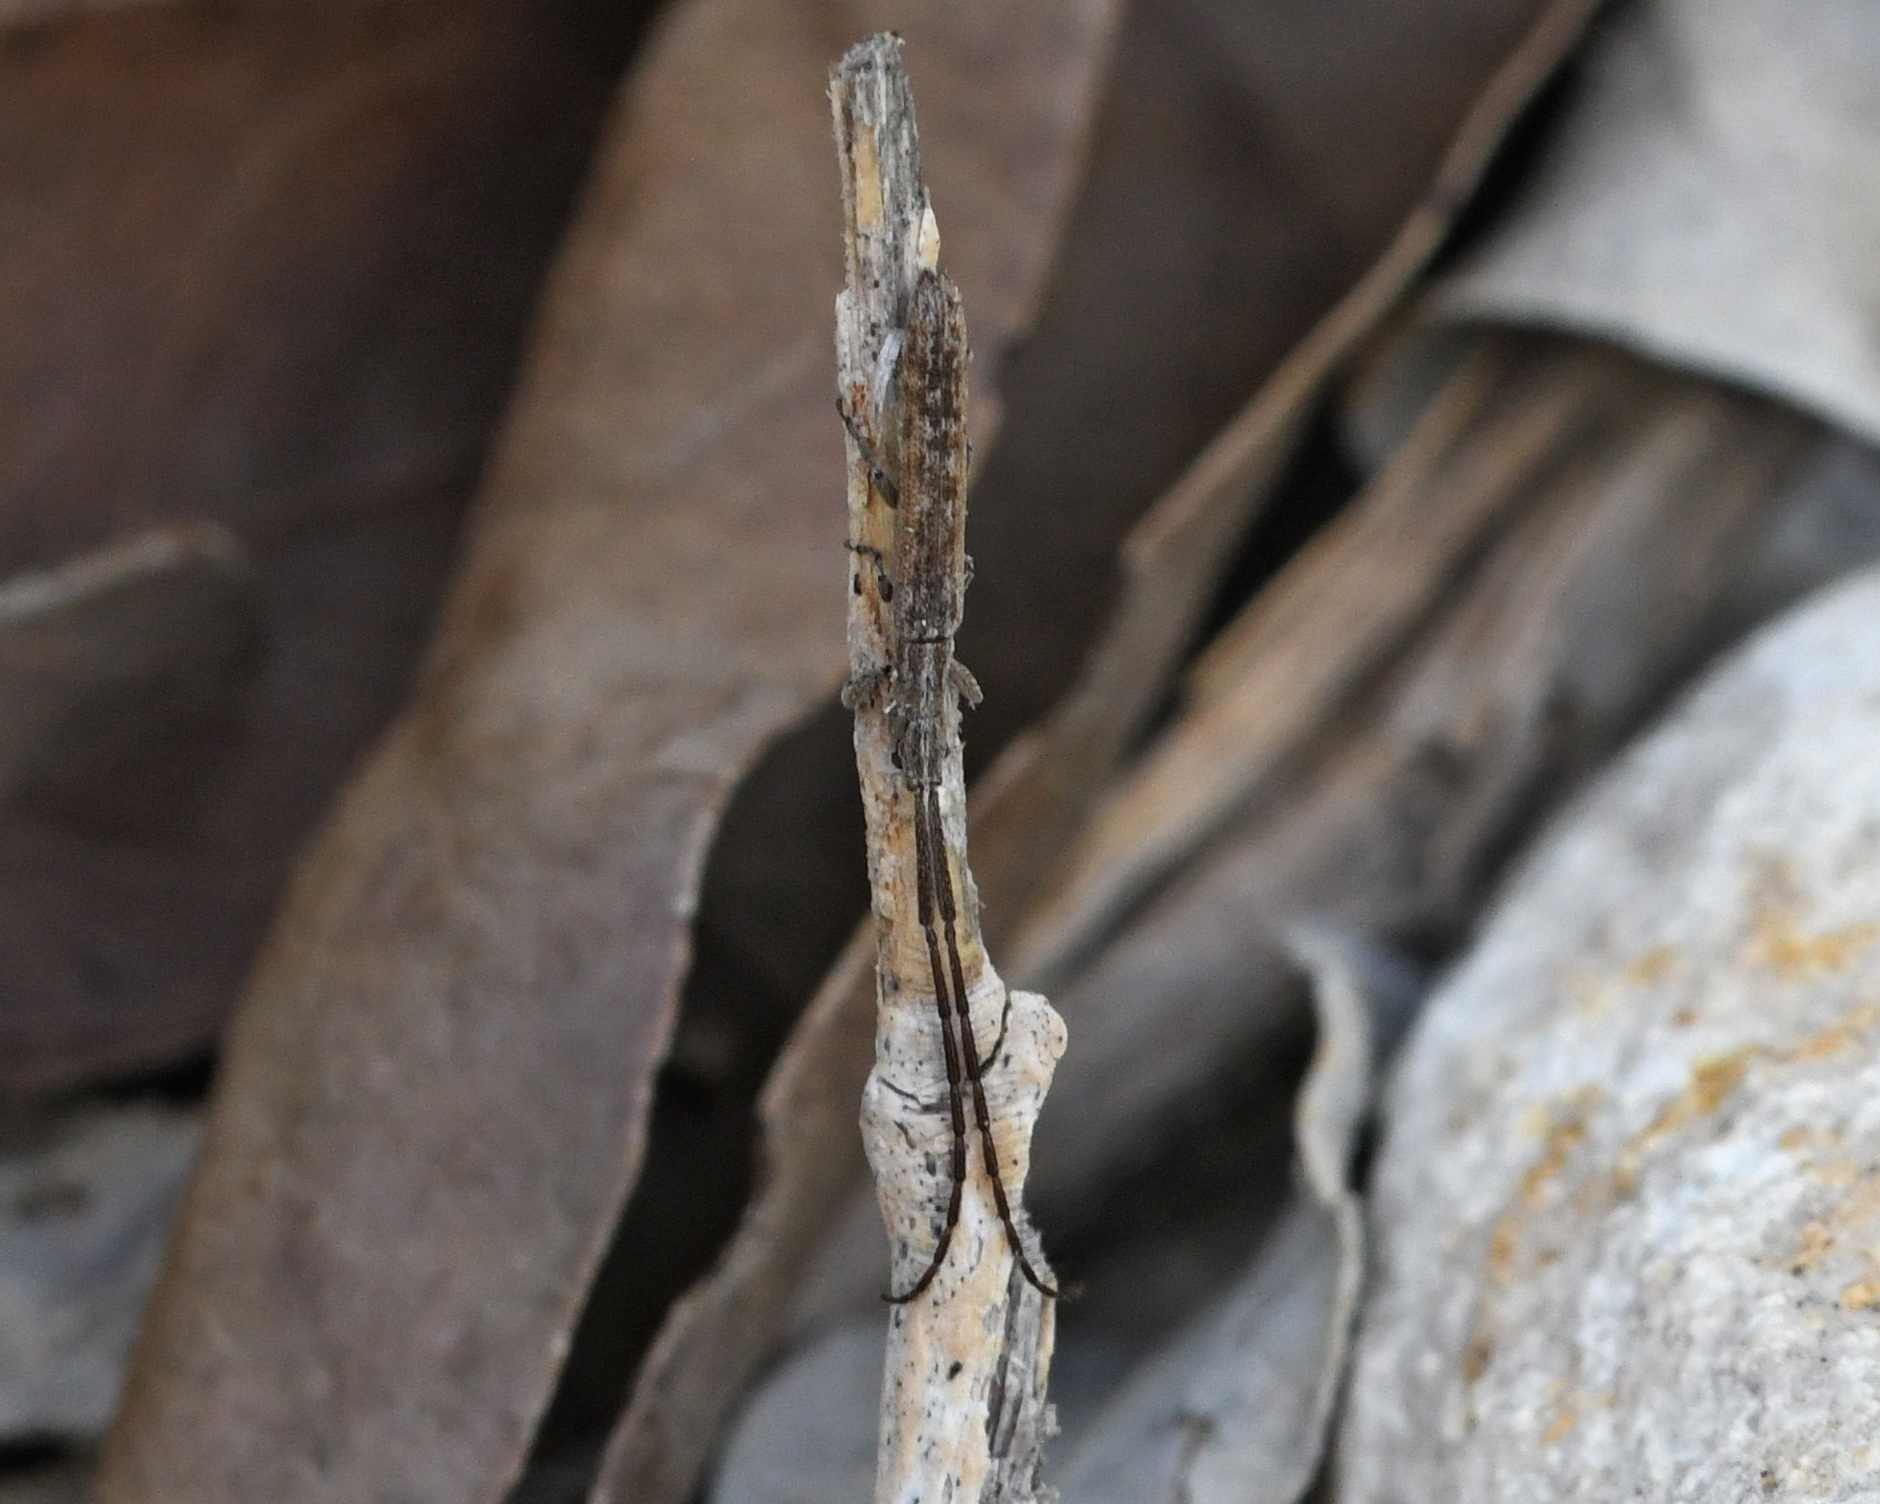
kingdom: Animalia
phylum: Arthropoda
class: Insecta
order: Coleoptera
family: Cerambycidae
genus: Spalacopsis
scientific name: Spalacopsis filum
